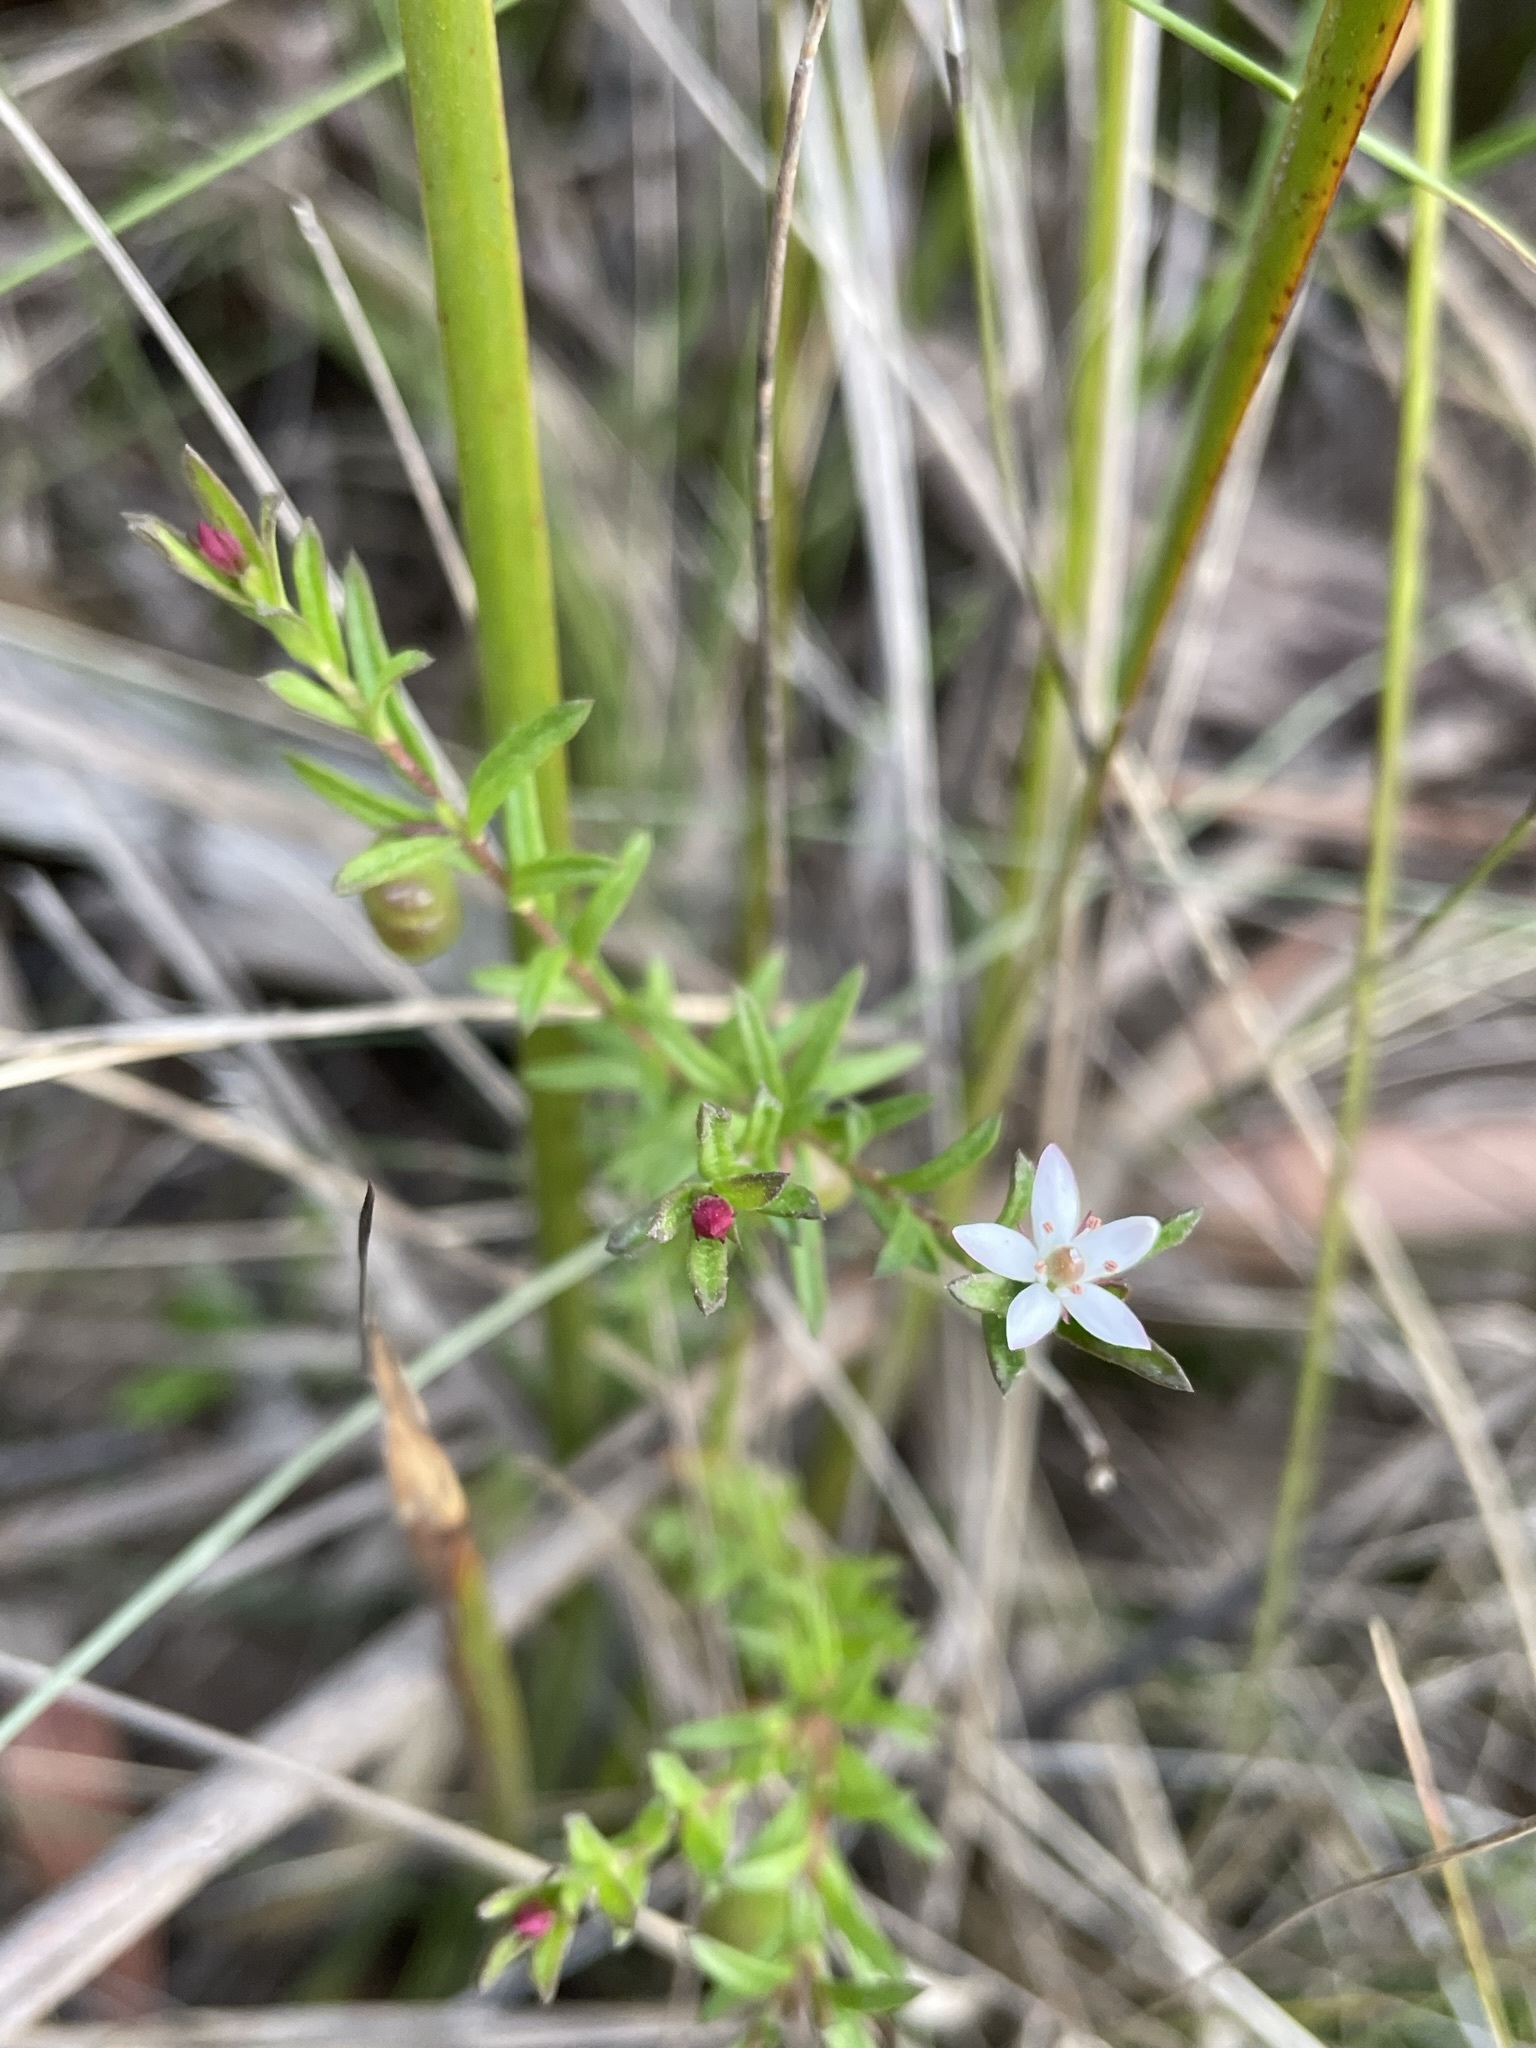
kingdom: Plantae
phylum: Tracheophyta
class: Magnoliopsida
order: Apiales
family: Pittosporaceae
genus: Rhytidosporum
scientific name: Rhytidosporum procumbens
